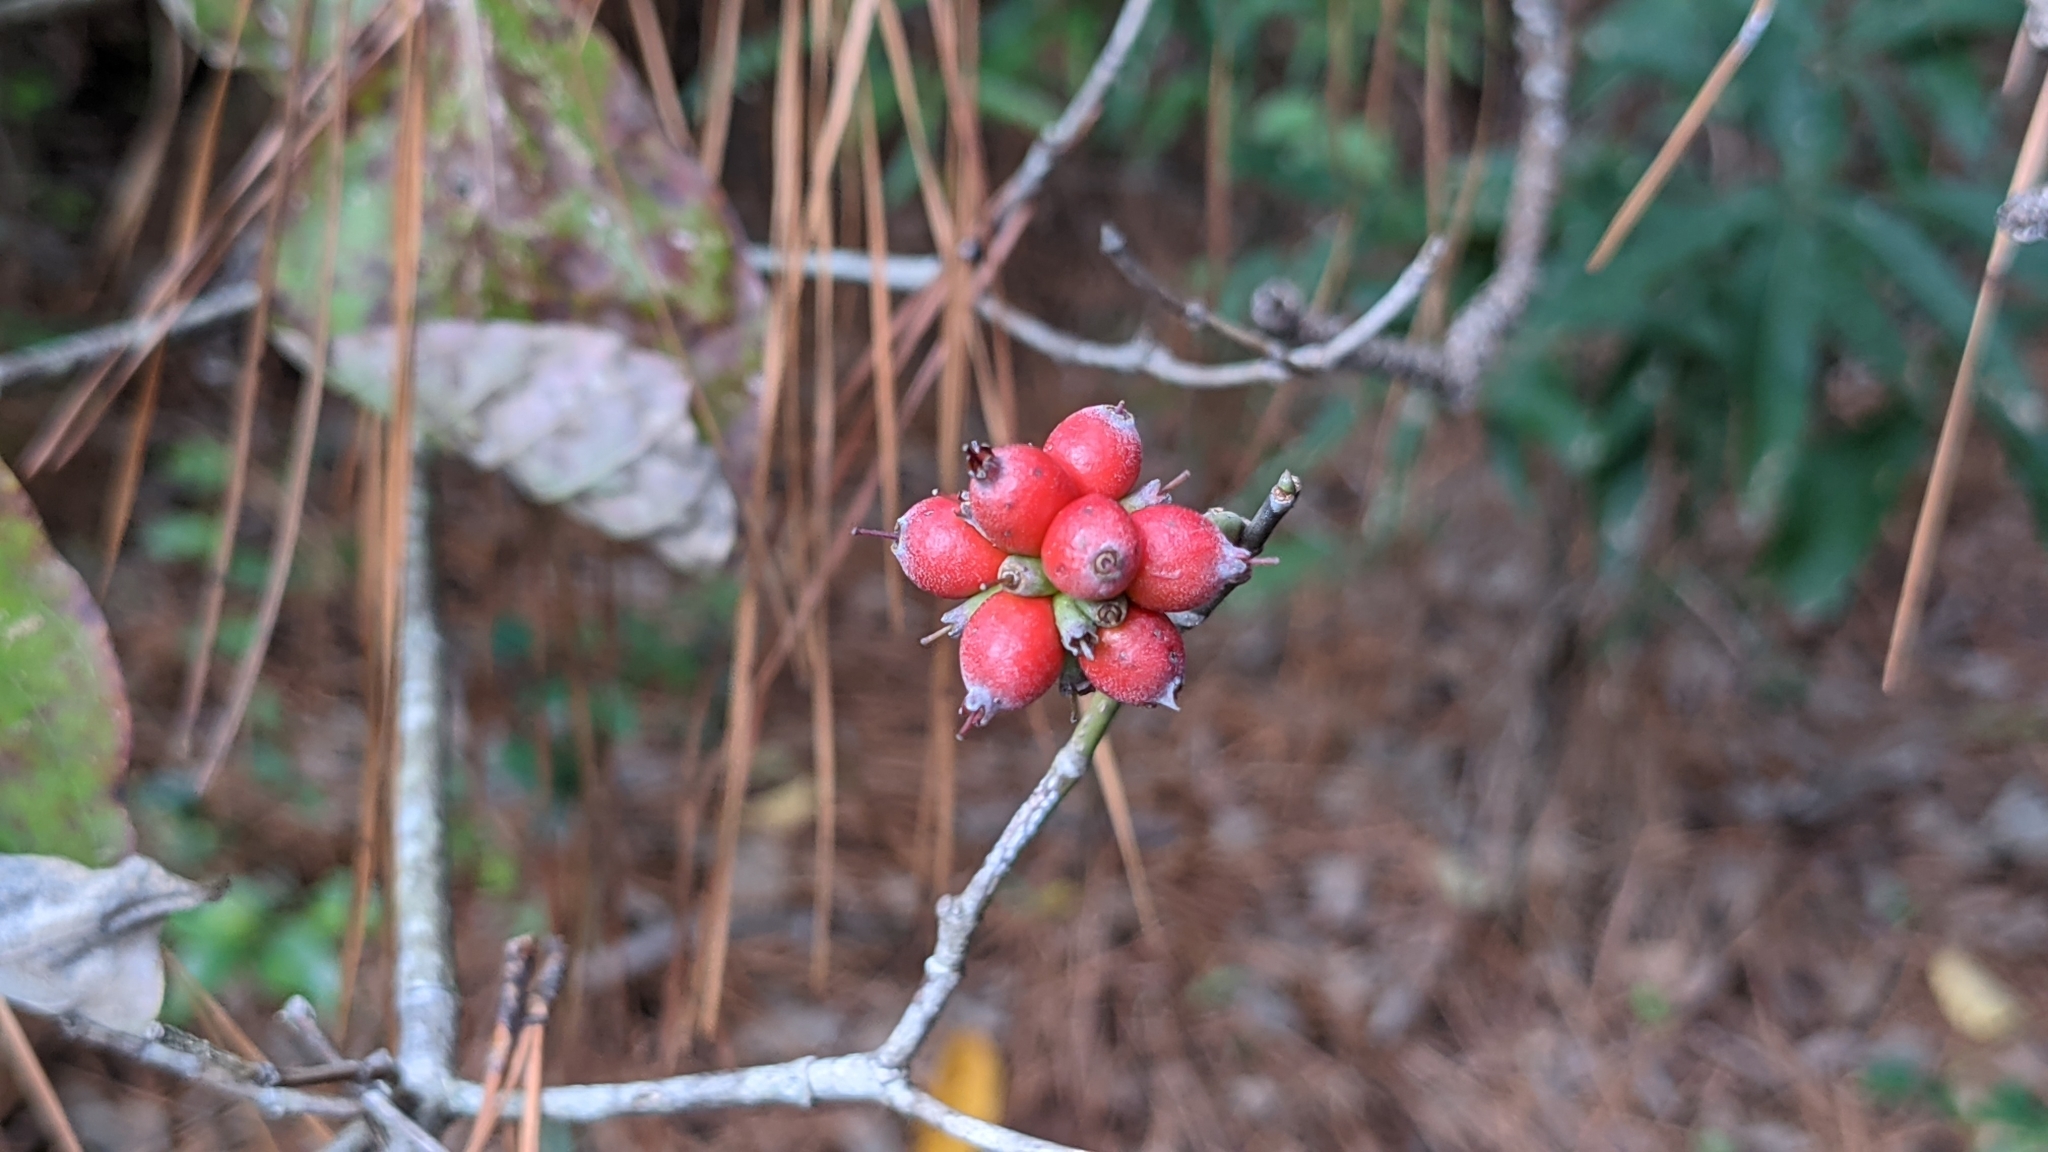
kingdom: Plantae
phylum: Tracheophyta
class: Magnoliopsida
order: Cornales
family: Cornaceae
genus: Cornus
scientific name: Cornus florida
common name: Flowering dogwood
